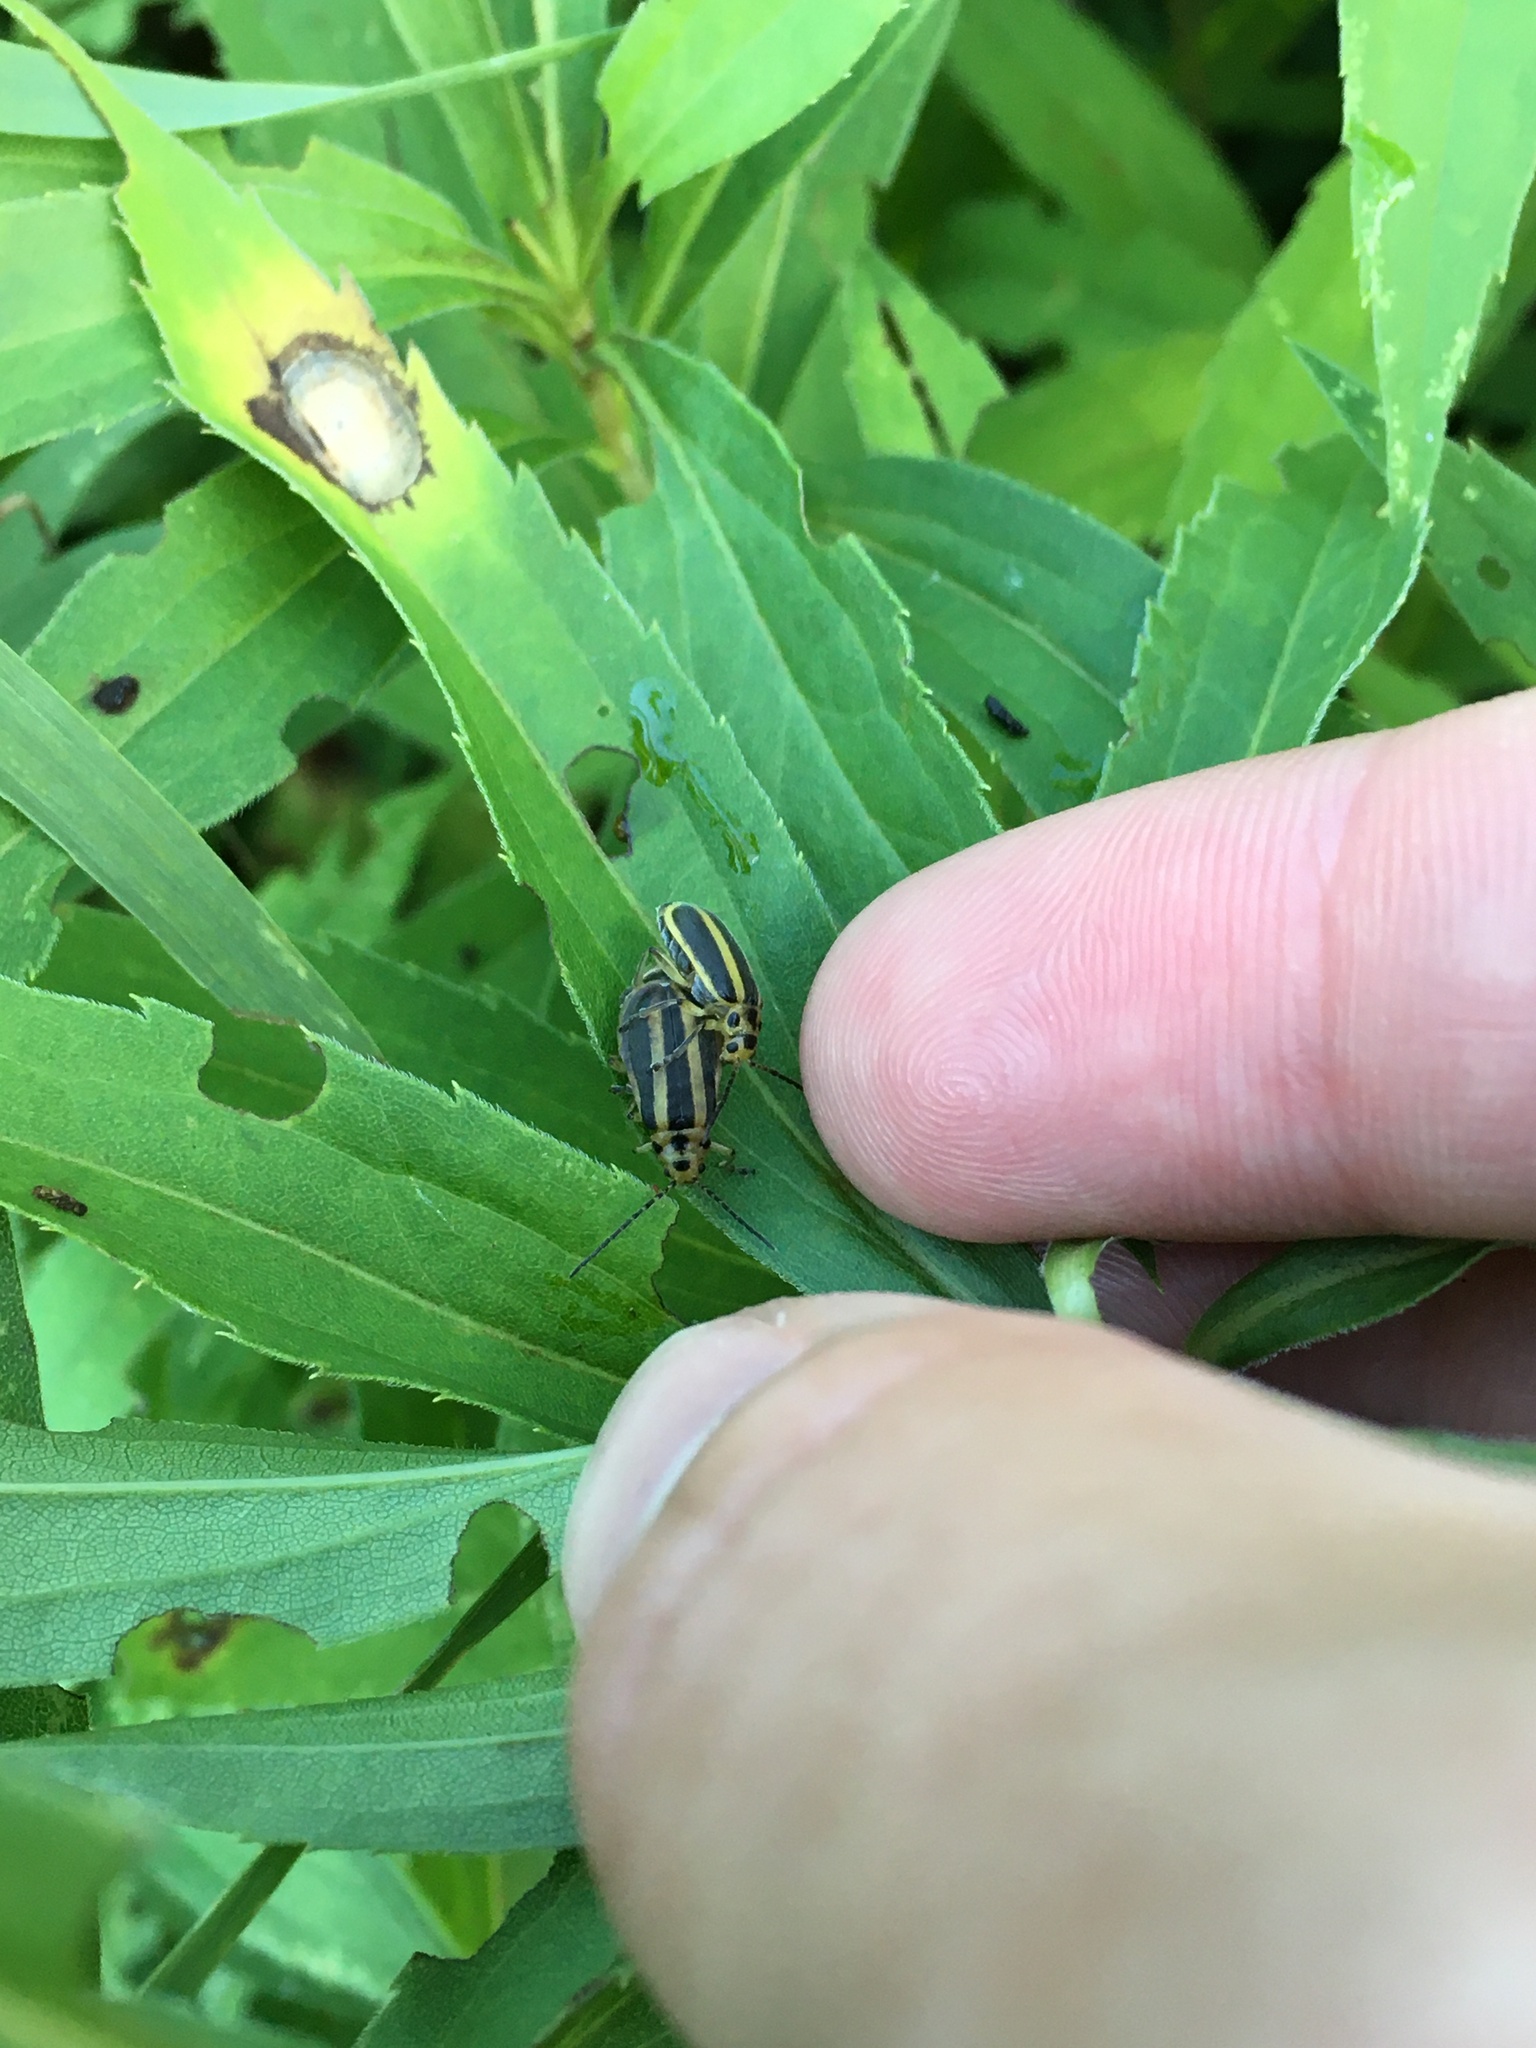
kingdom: Animalia
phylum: Arthropoda
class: Insecta
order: Coleoptera
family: Chrysomelidae
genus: Trirhabda
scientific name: Trirhabda canadensis
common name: Goldenrod leaf beetle
